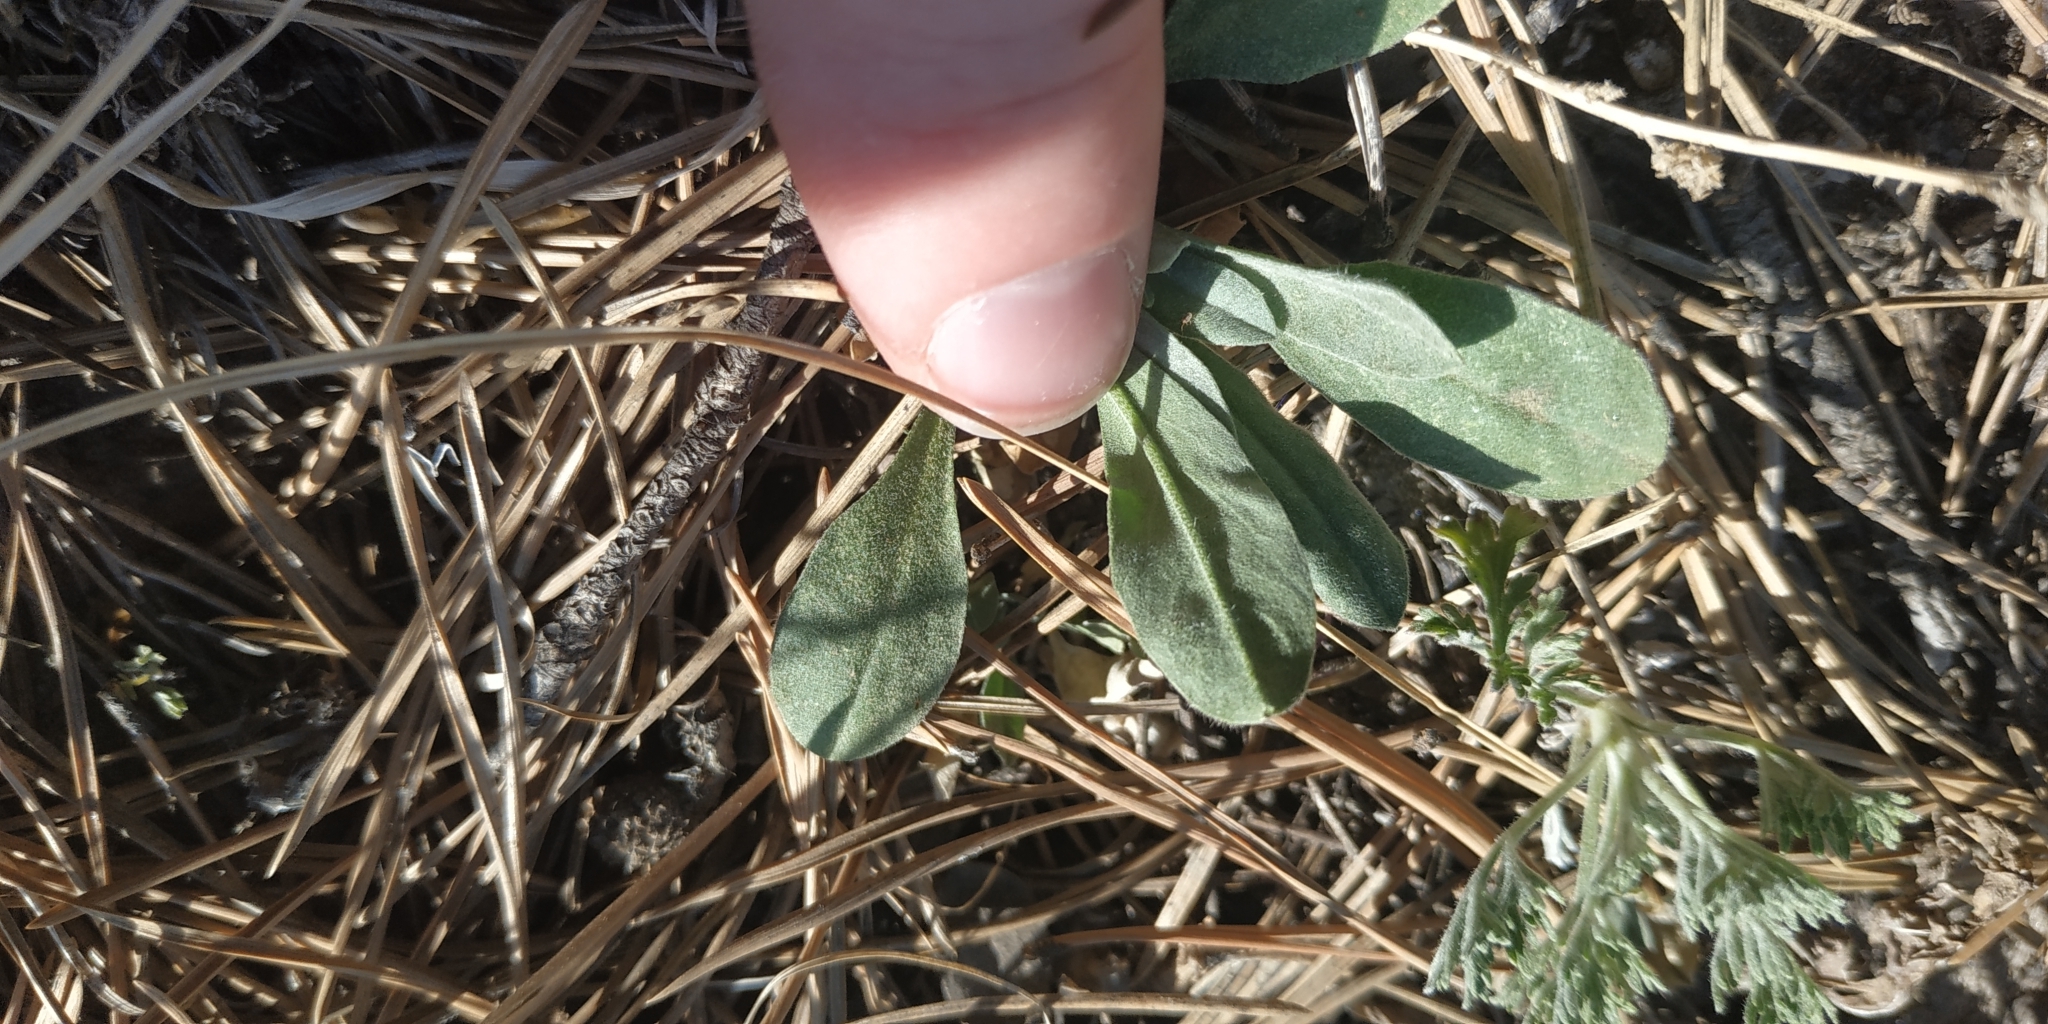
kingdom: Plantae
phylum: Tracheophyta
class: Magnoliopsida
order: Caryophyllales
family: Caryophyllaceae
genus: Silene
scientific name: Silene nutans
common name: Nottingham catchfly
